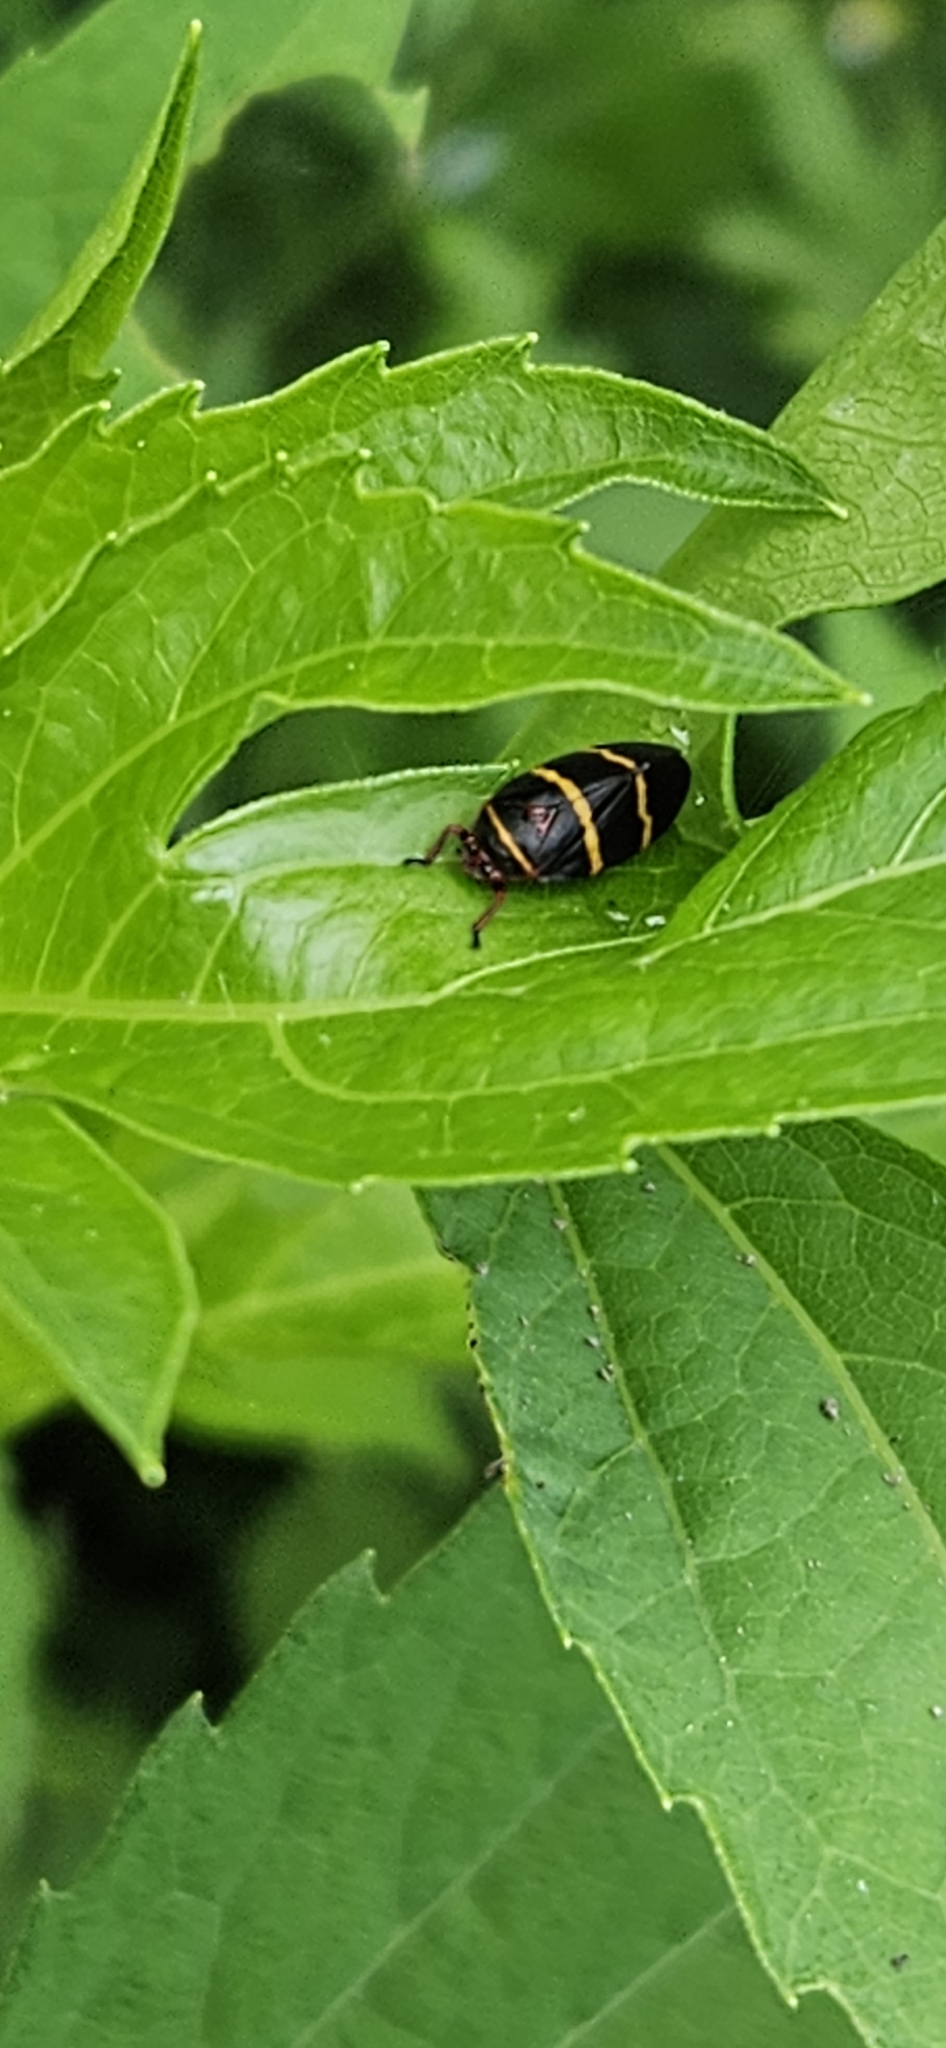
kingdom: Animalia
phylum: Arthropoda
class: Insecta
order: Hemiptera
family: Cercopidae
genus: Prosapia
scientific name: Prosapia bicincta
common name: Twolined spittlebug
